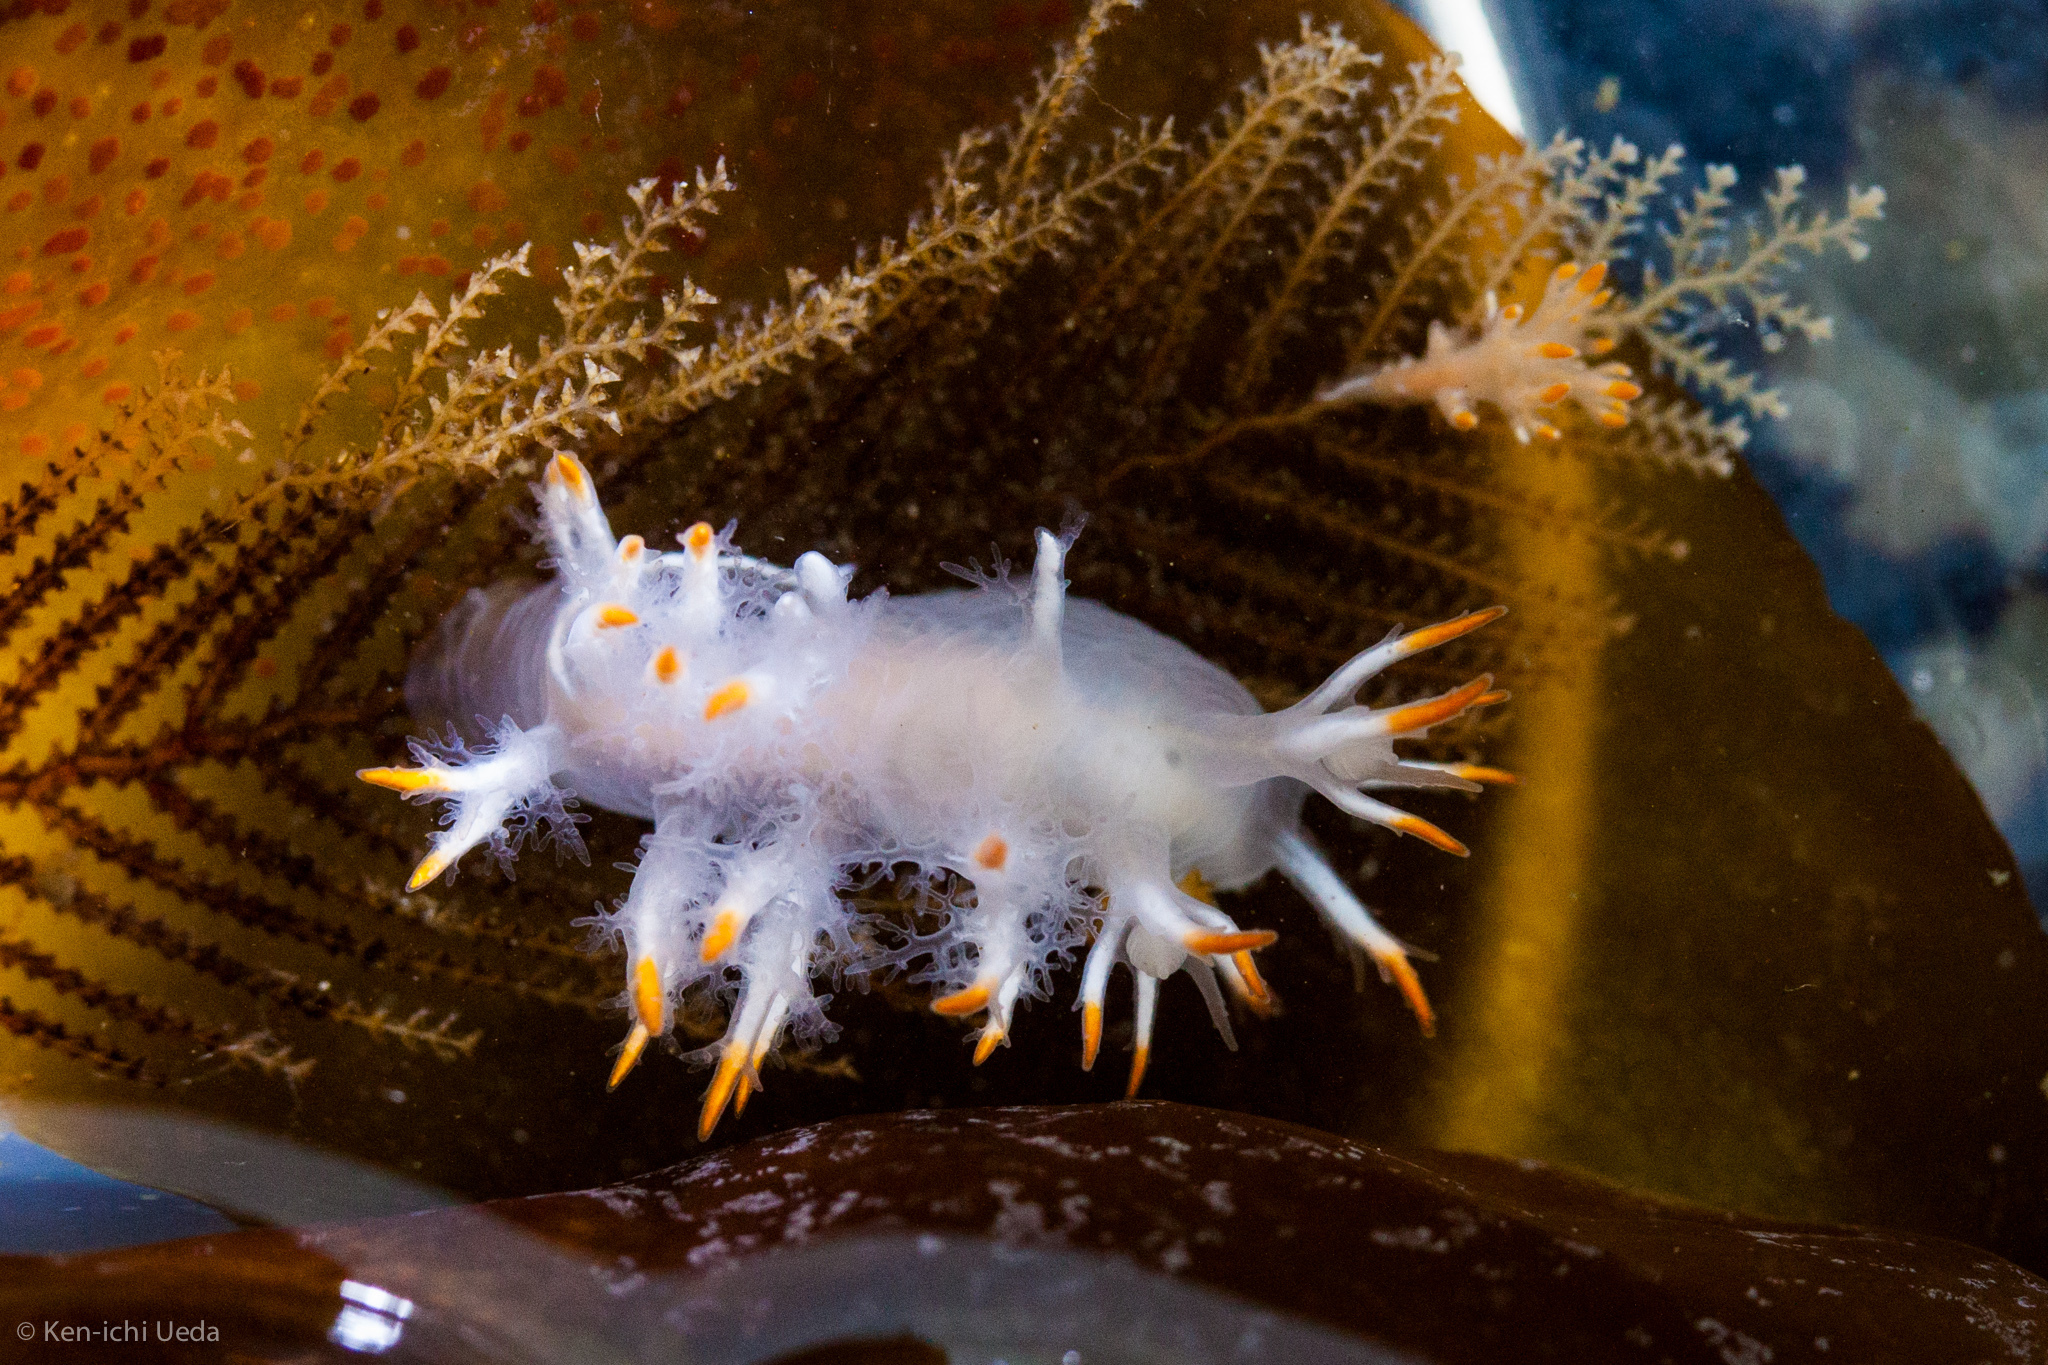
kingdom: Animalia
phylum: Mollusca
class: Gastropoda
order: Nudibranchia
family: Dendronotidae
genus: Dendronotus
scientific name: Dendronotus albus
